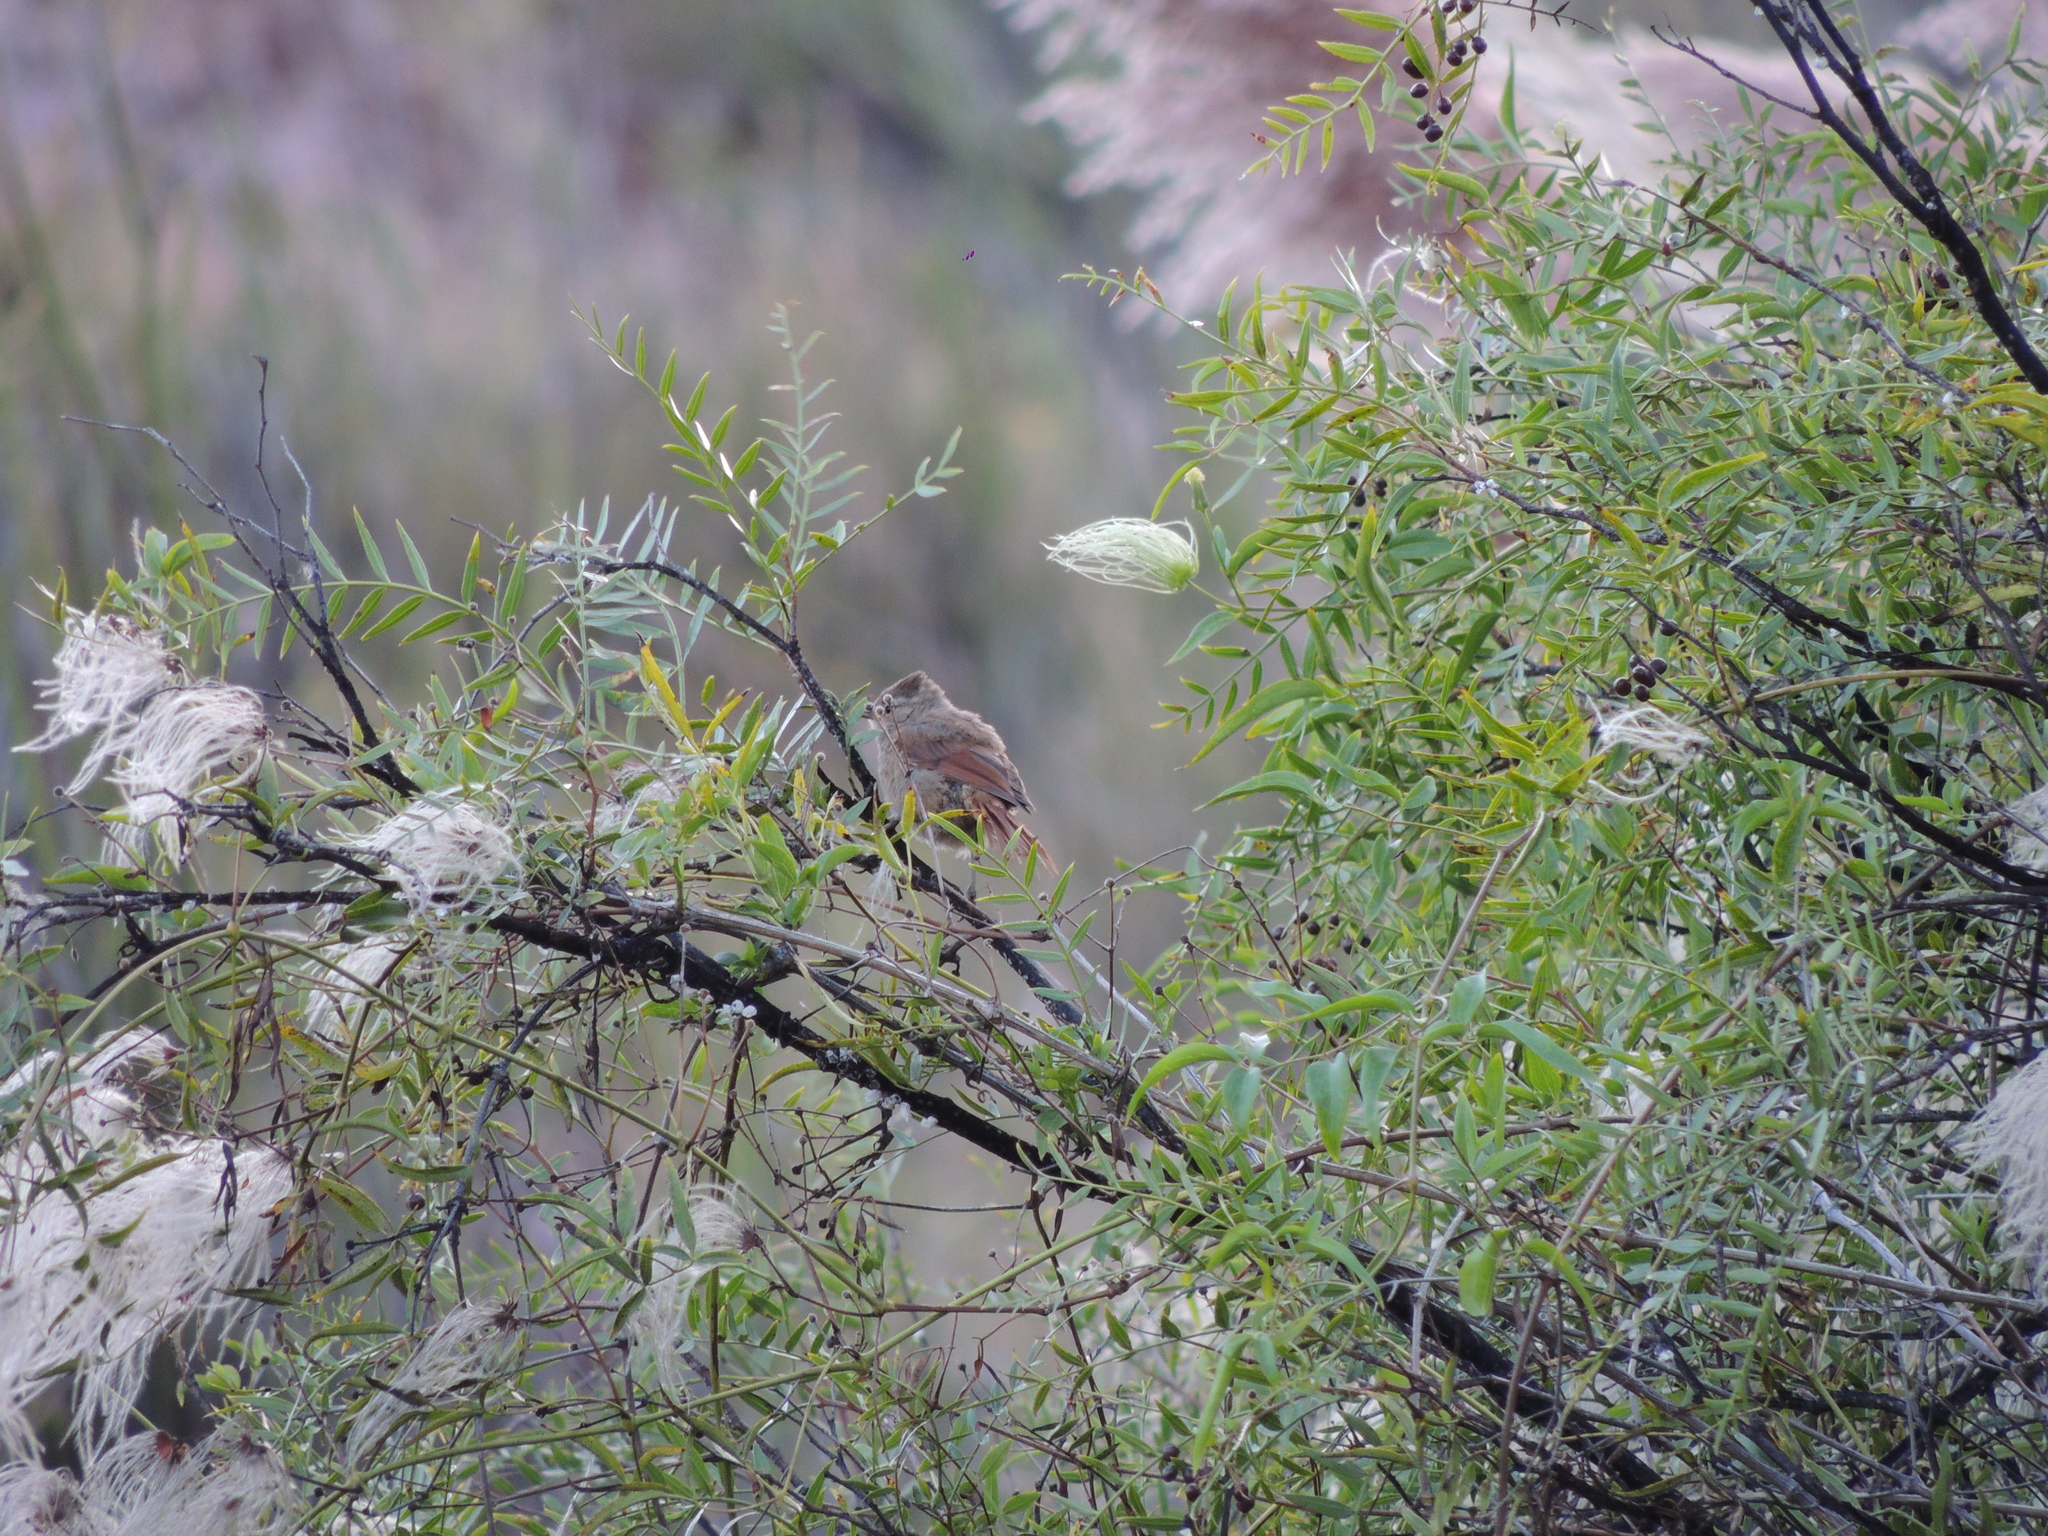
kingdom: Animalia
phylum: Chordata
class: Aves
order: Passeriformes
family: Furnariidae
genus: Leptasthenura
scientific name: Leptasthenura fuliginiceps
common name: Brown-capped tit-spinetail
